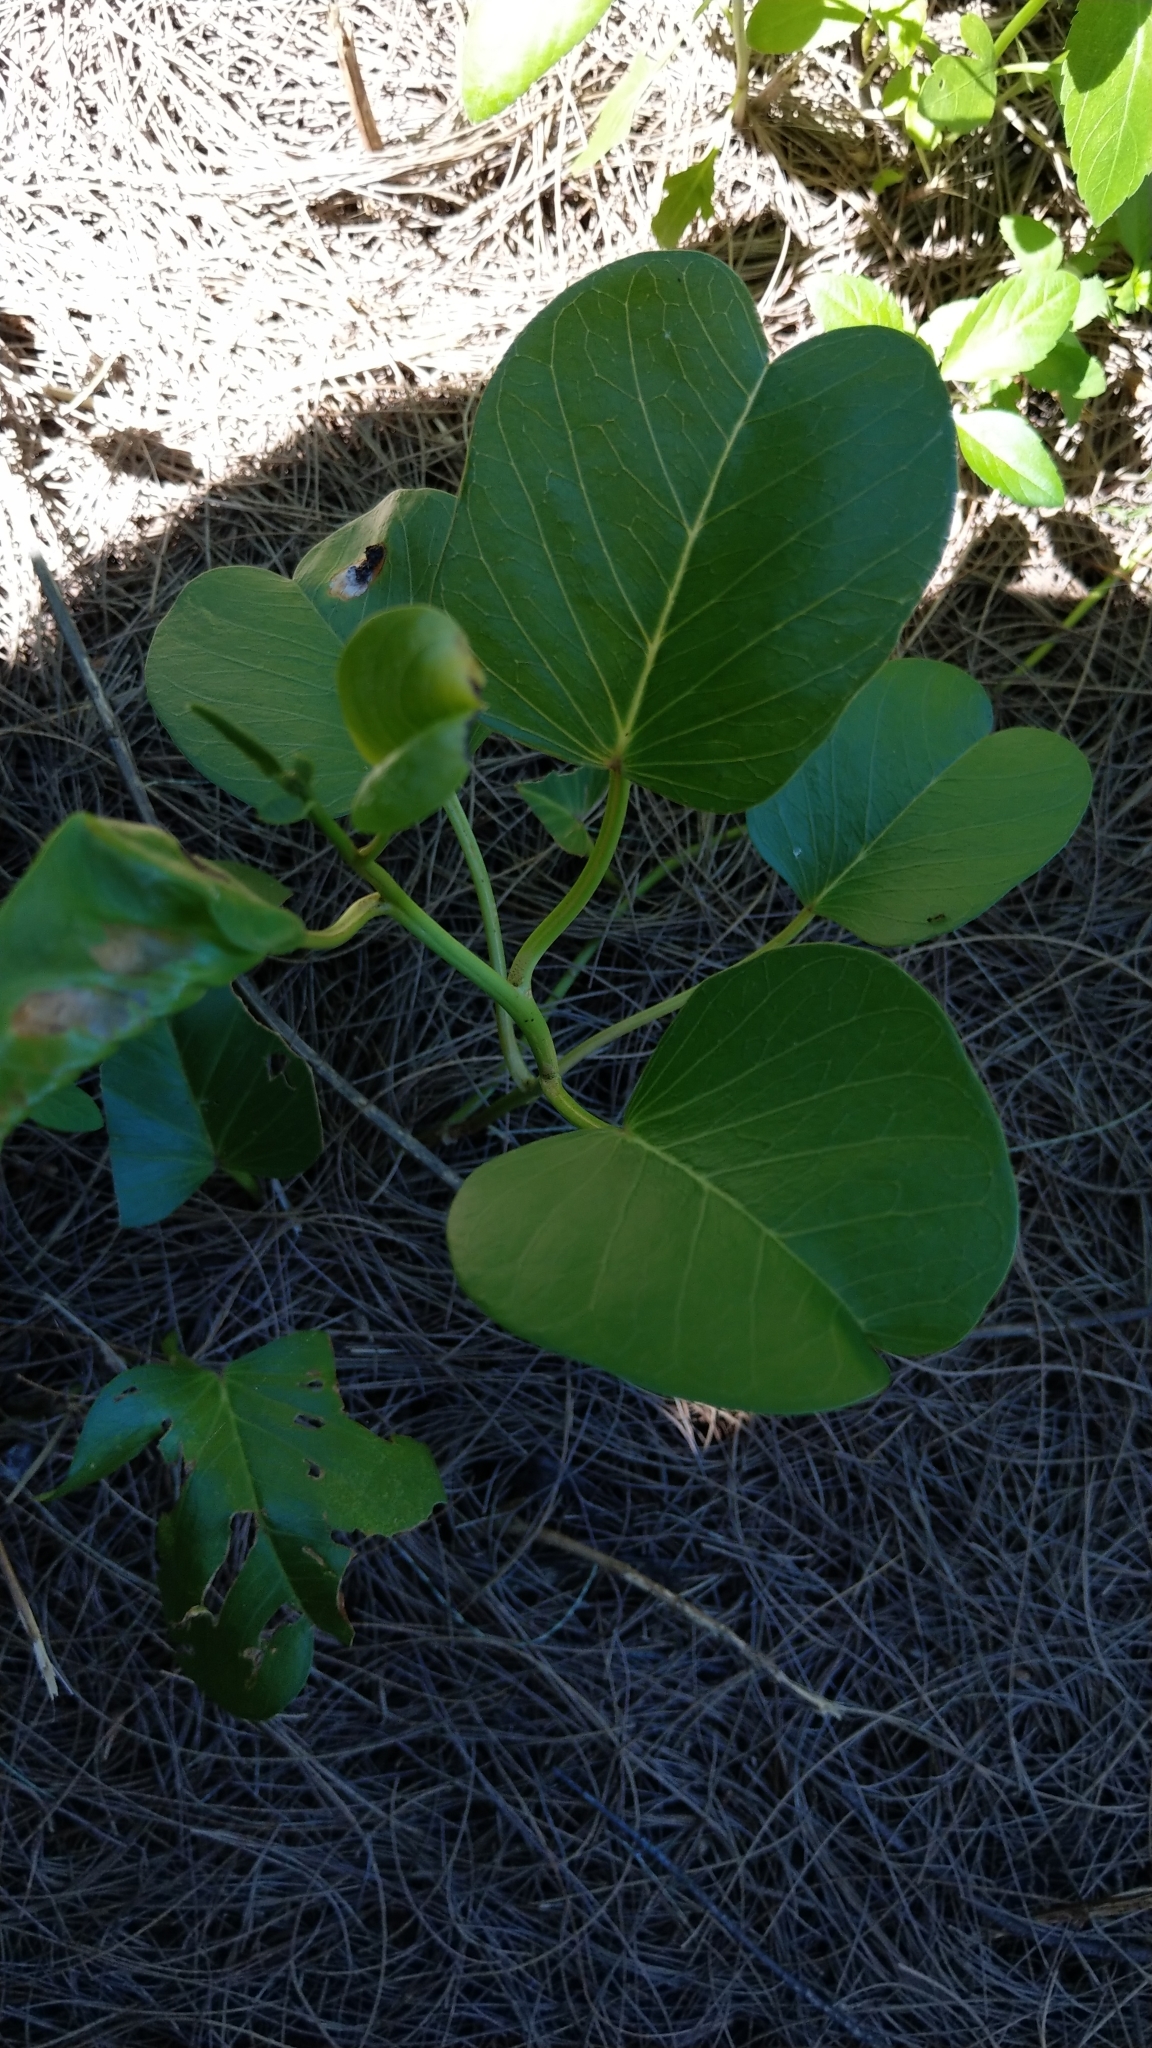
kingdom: Plantae
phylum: Tracheophyta
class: Magnoliopsida
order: Solanales
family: Convolvulaceae
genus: Ipomoea
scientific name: Ipomoea pes-caprae
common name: Beach morning glory
